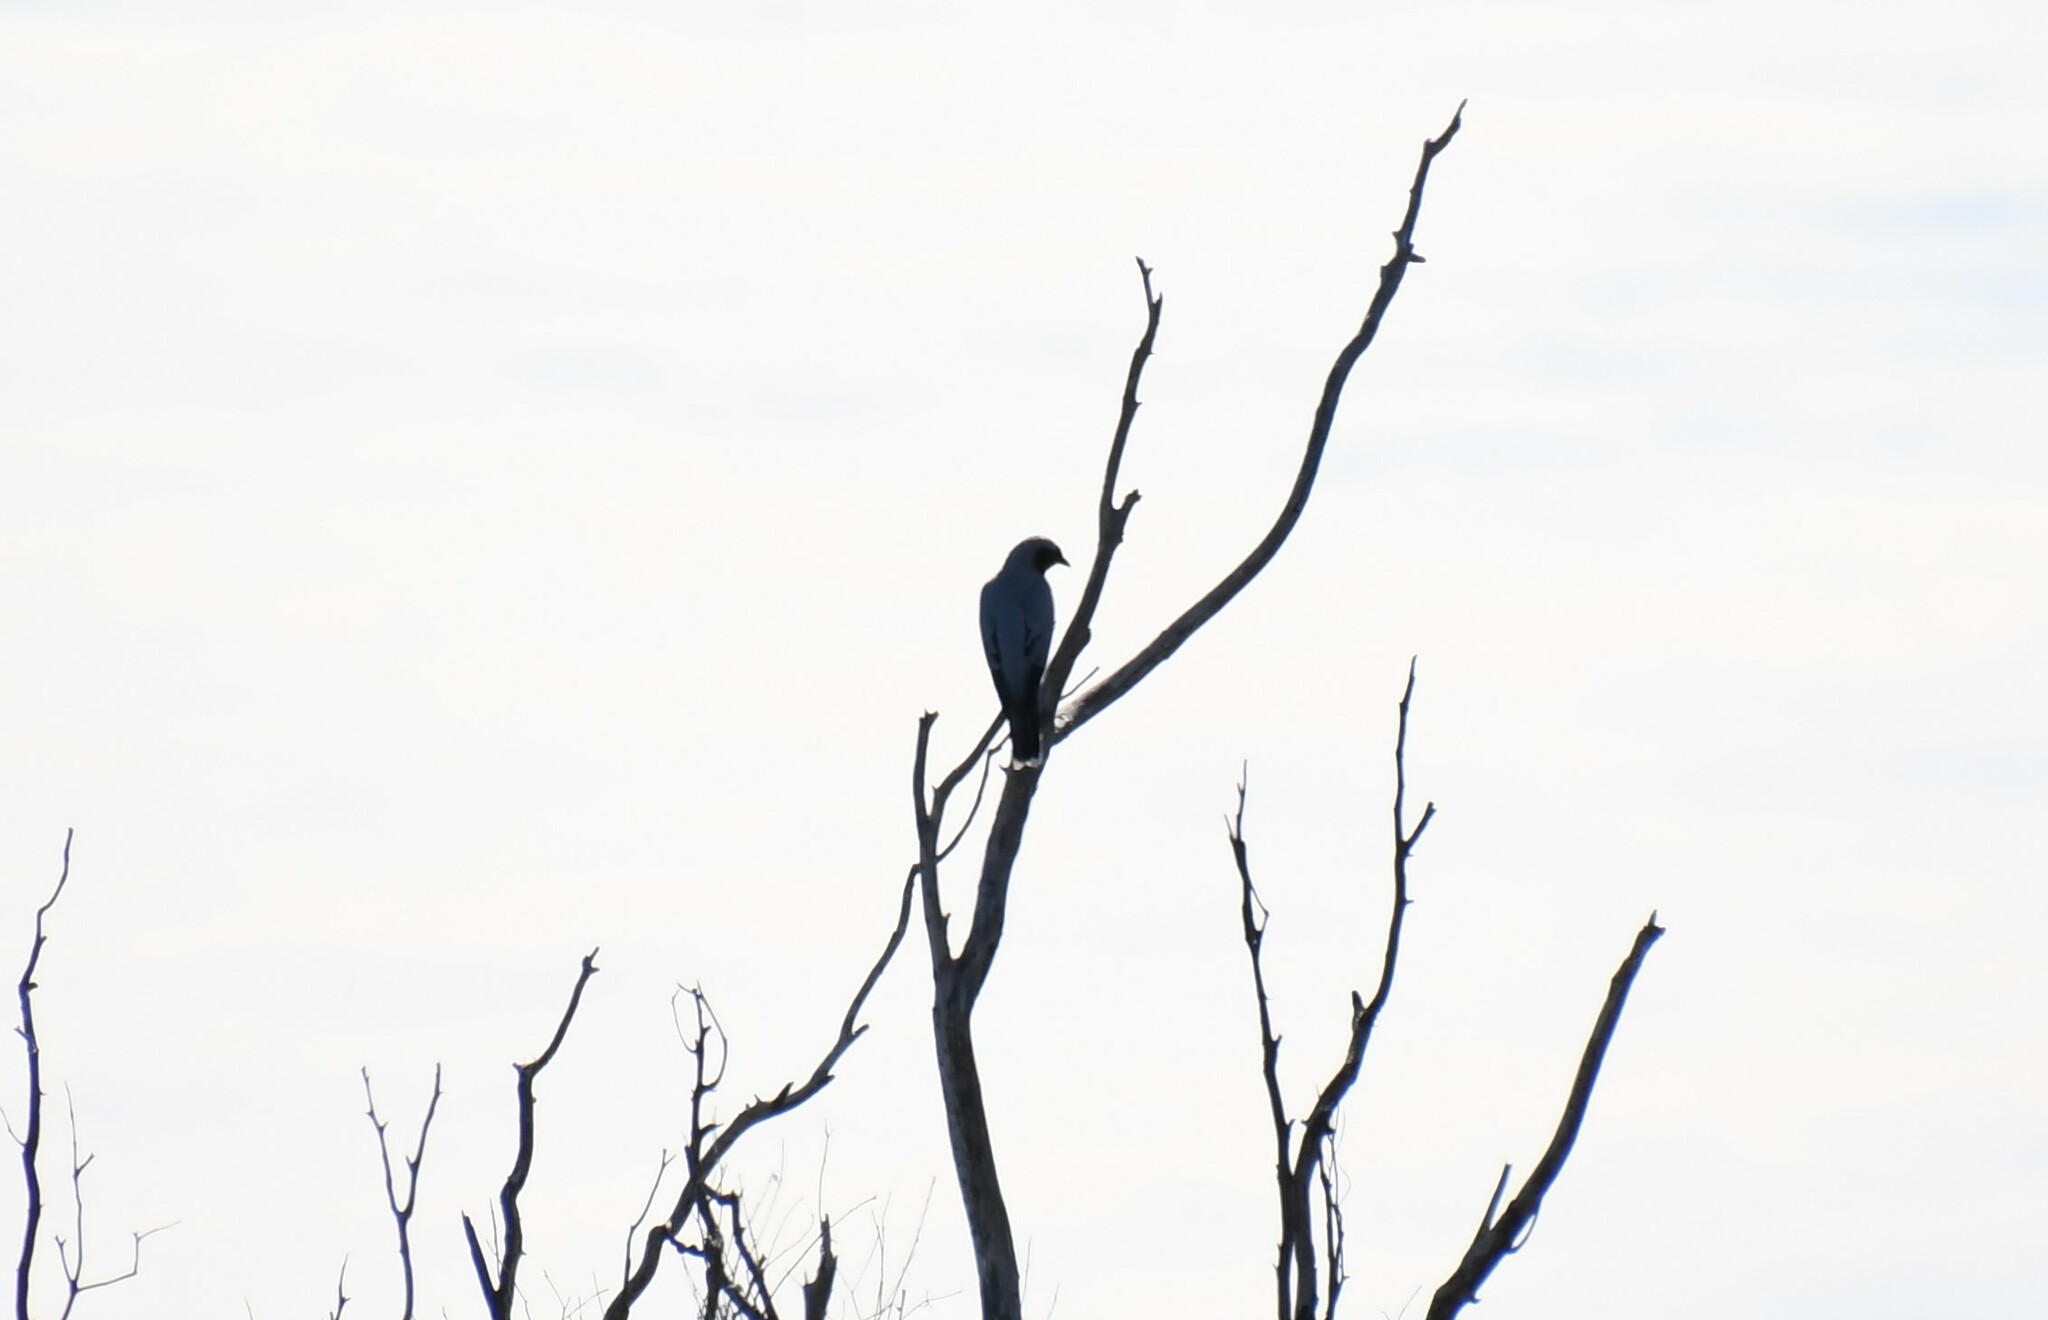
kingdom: Animalia
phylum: Chordata
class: Aves
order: Passeriformes
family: Campephagidae
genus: Coracina
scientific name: Coracina novaehollandiae
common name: Black-faced cuckooshrike
